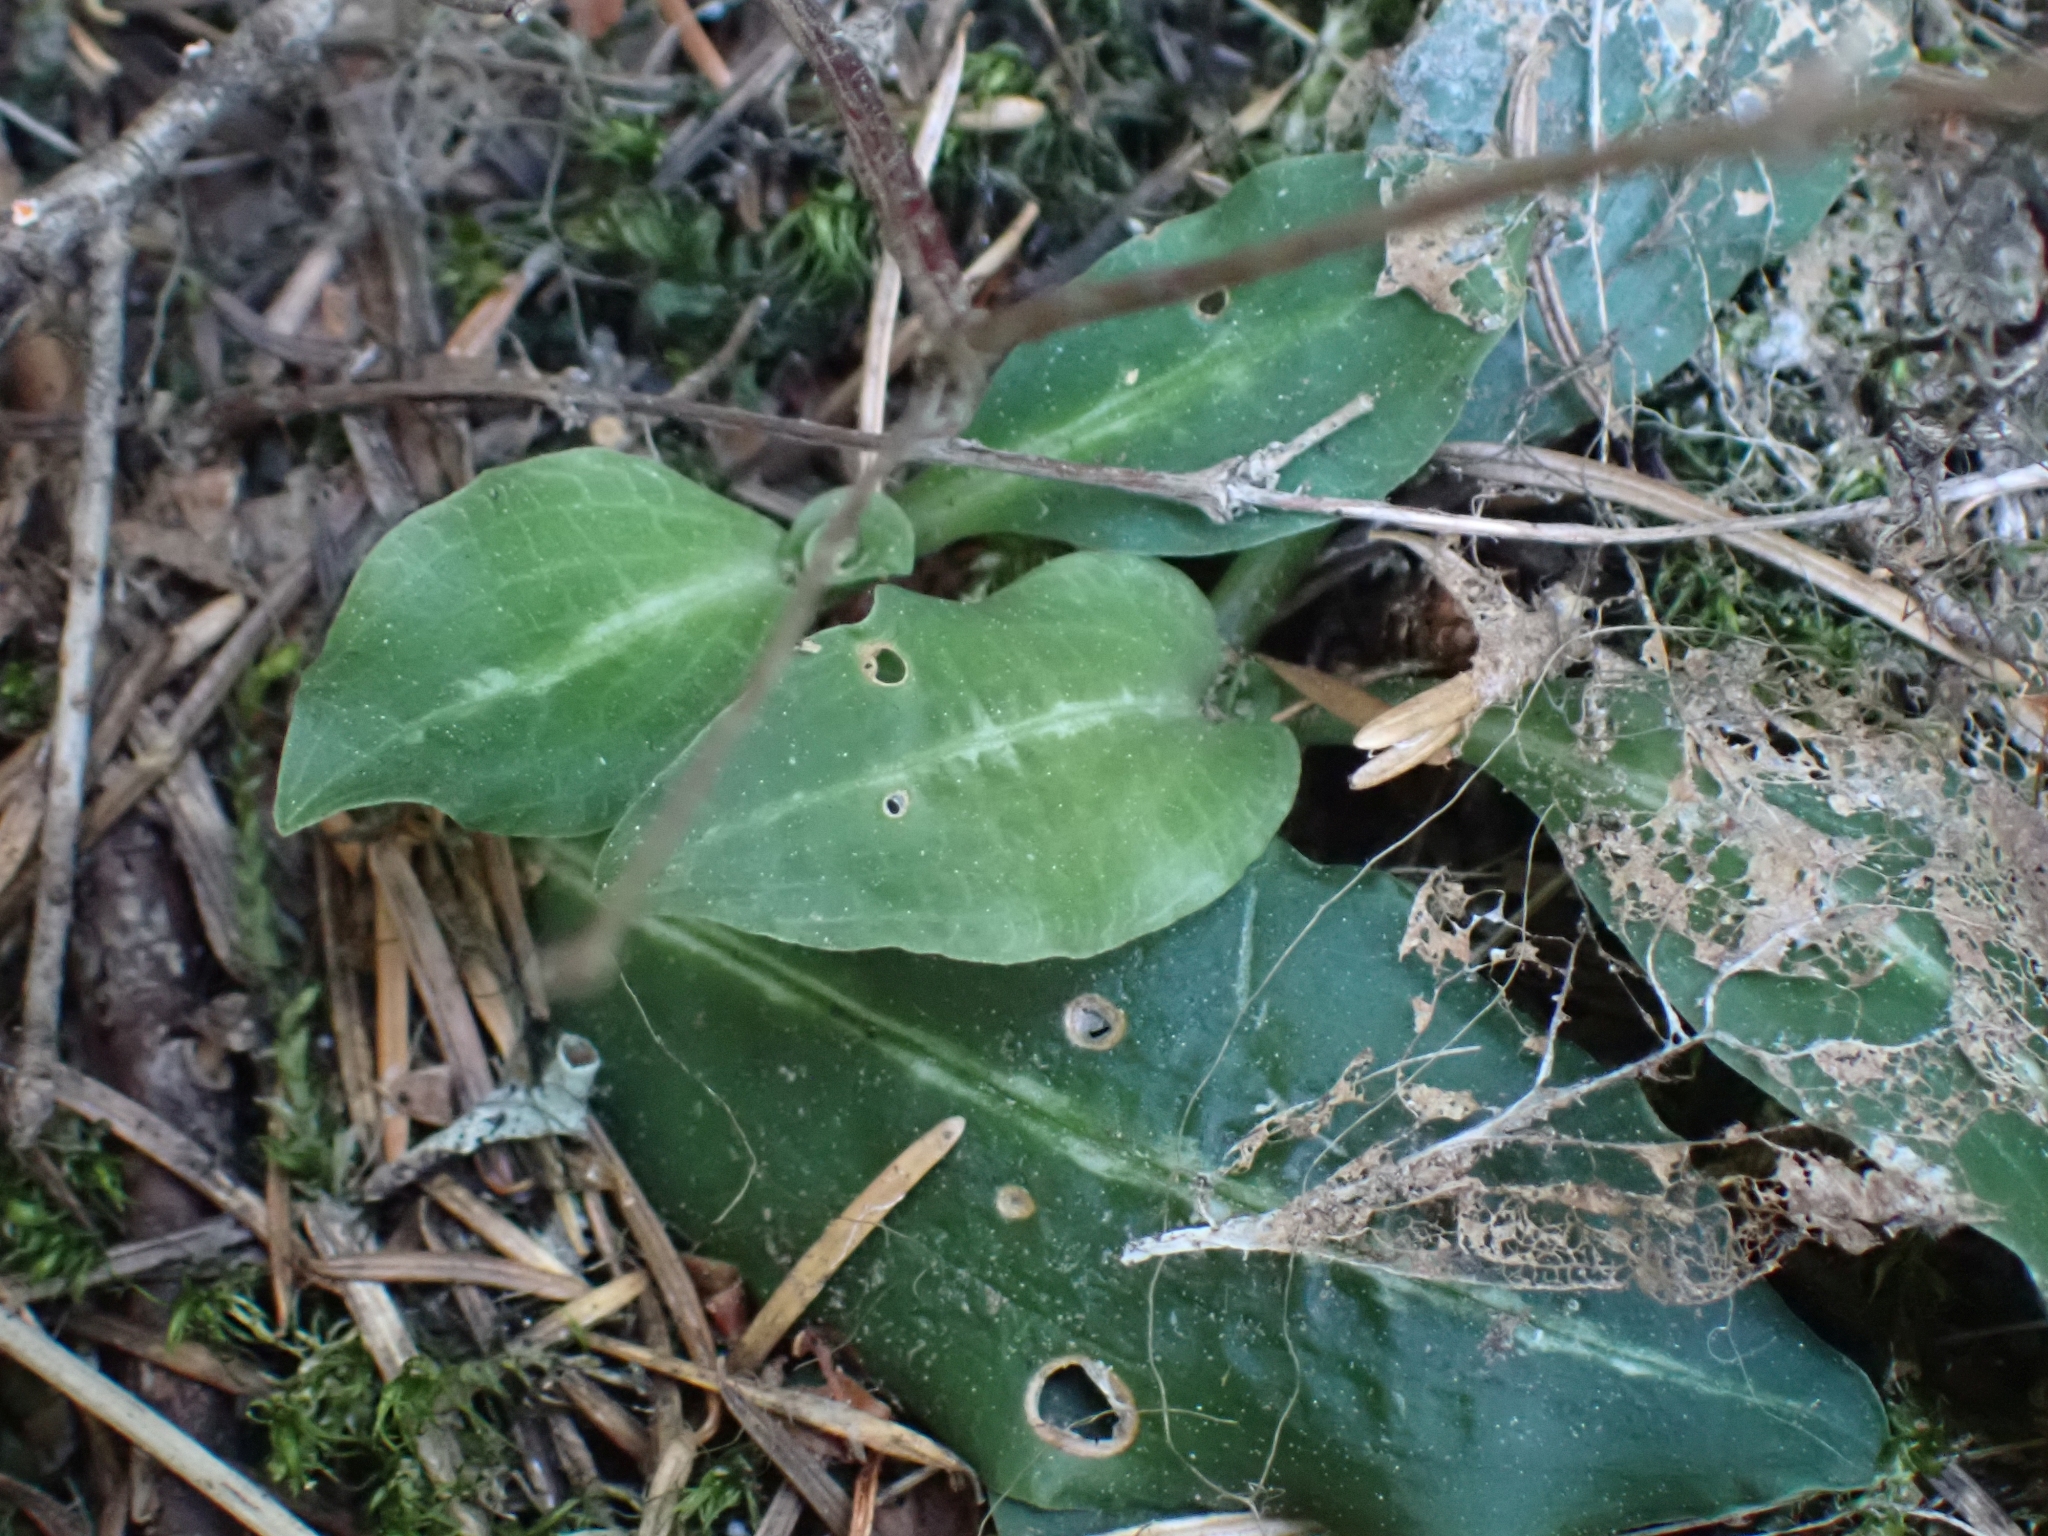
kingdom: Plantae
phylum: Tracheophyta
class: Liliopsida
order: Asparagales
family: Orchidaceae
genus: Goodyera
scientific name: Goodyera oblongifolia
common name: Giant rattlesnake-plantain
